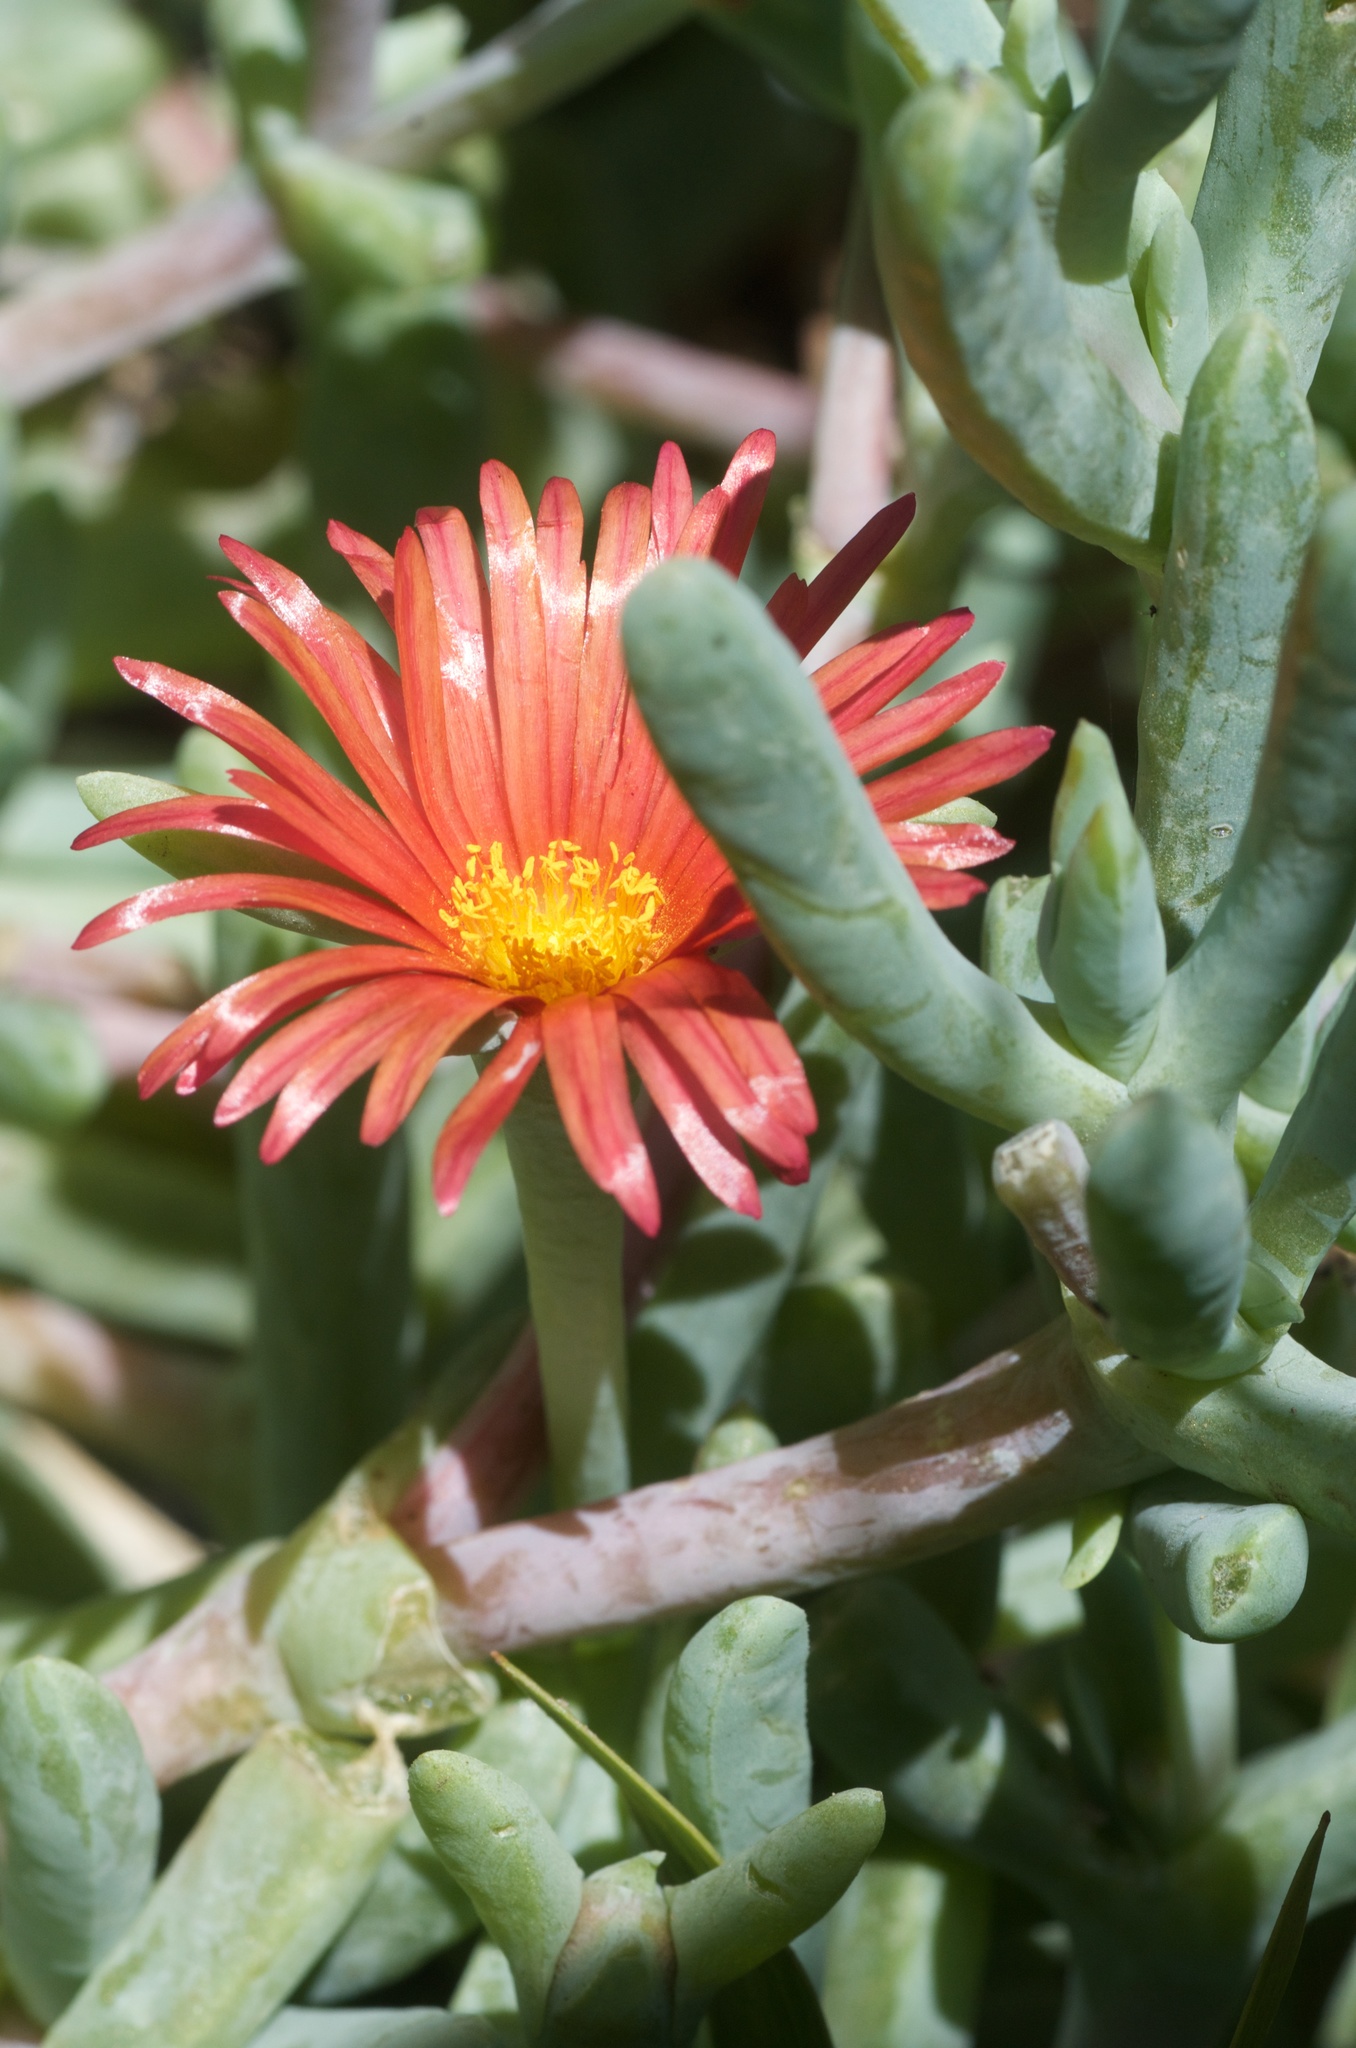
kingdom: Plantae
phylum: Tracheophyta
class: Magnoliopsida
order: Caryophyllales
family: Aizoaceae
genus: Malephora
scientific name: Malephora crocea
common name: Coppery mesemb
